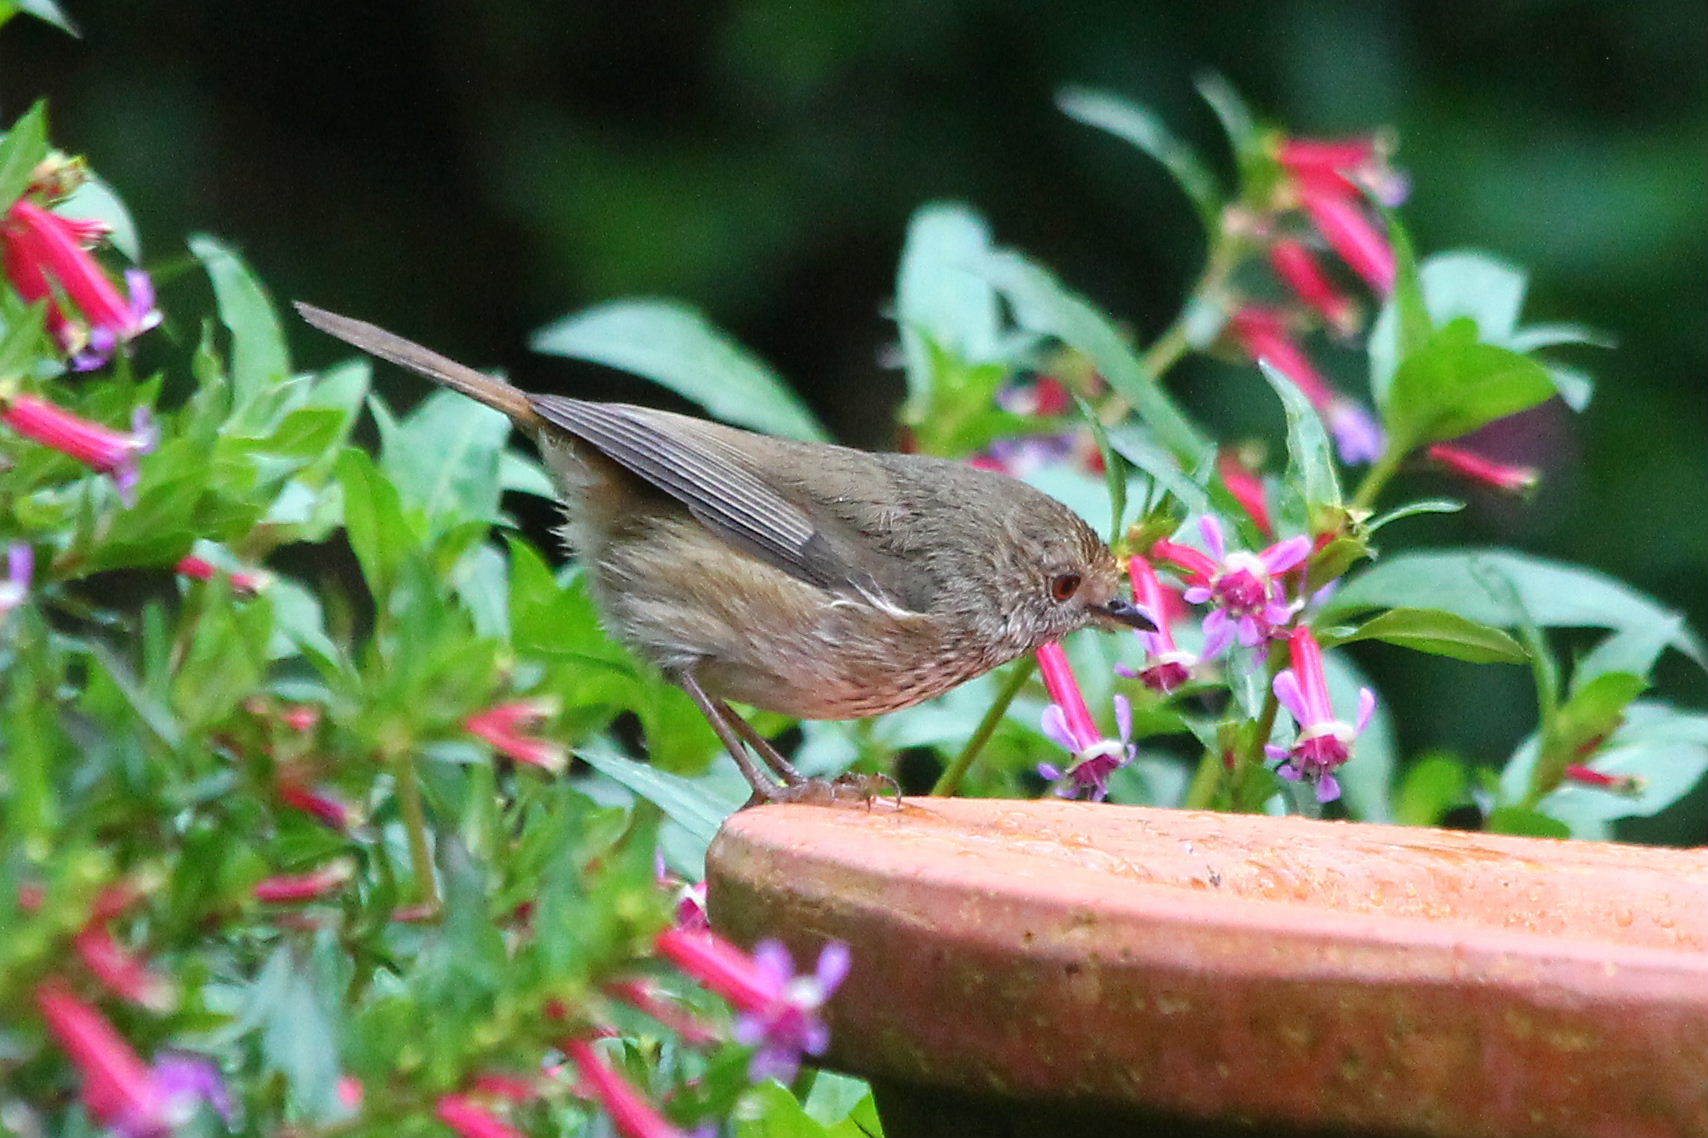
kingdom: Animalia
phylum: Chordata
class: Aves
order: Passeriformes
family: Acanthizidae
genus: Acanthiza
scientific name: Acanthiza pusilla
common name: Brown thornbill
